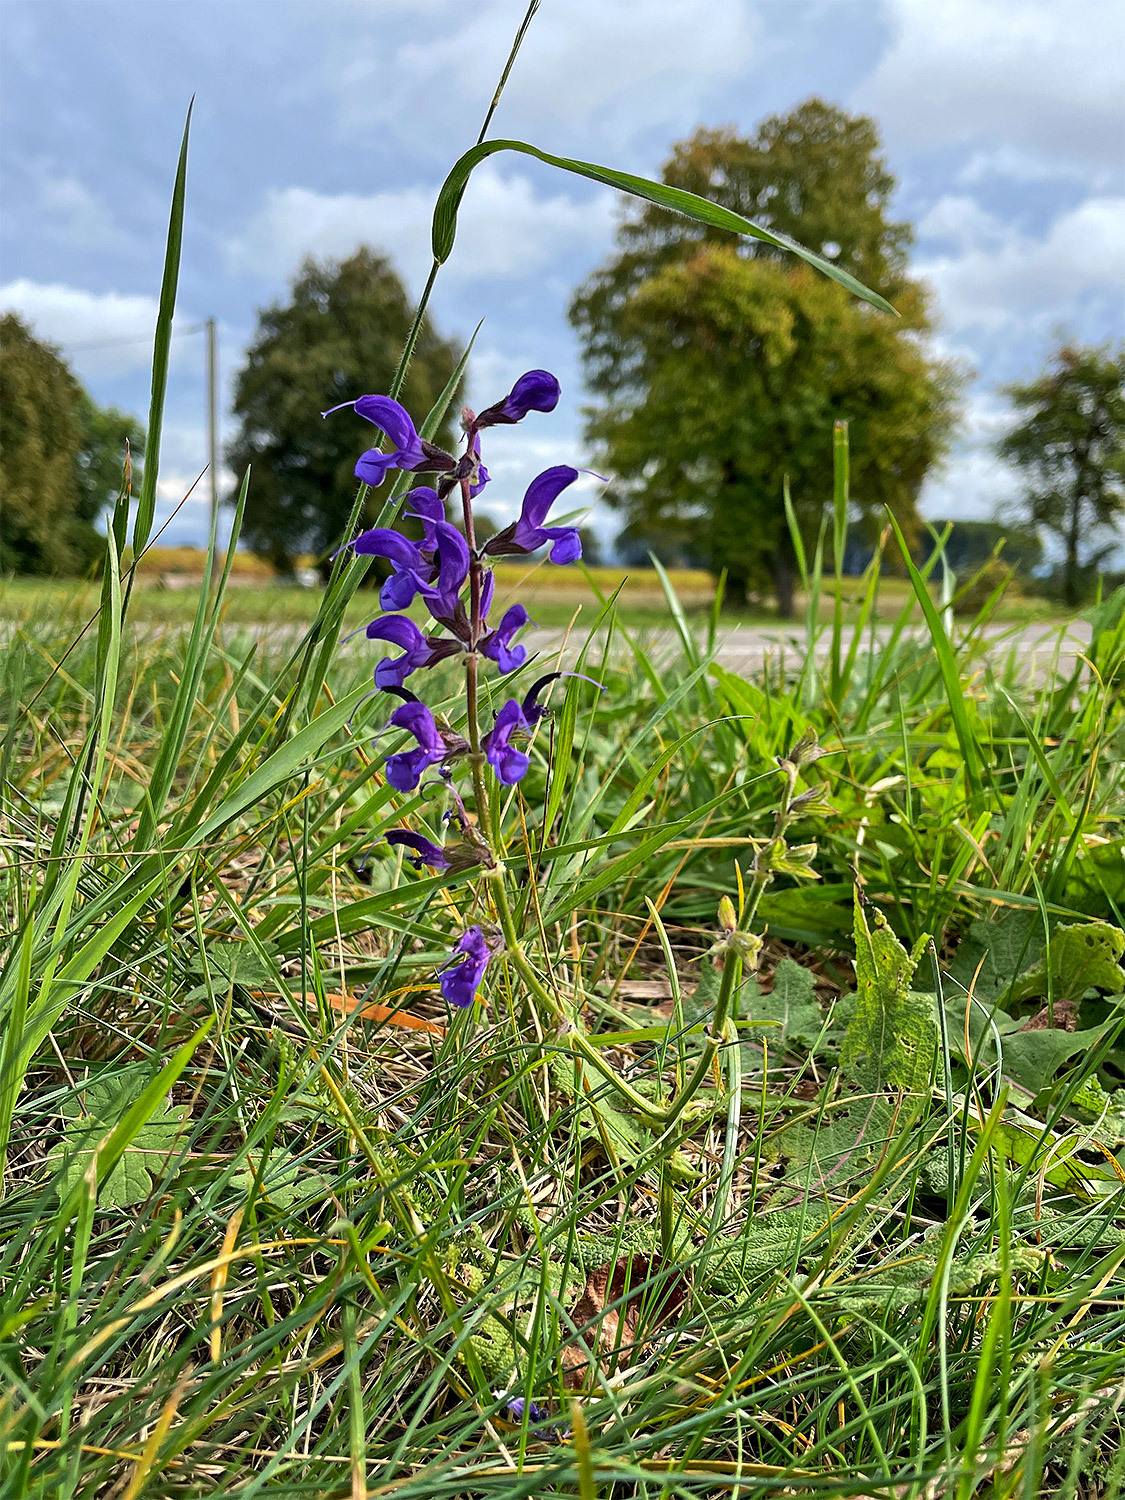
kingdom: Plantae
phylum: Tracheophyta
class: Magnoliopsida
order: Lamiales
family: Lamiaceae
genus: Salvia
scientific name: Salvia pratensis
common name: Meadow sage
